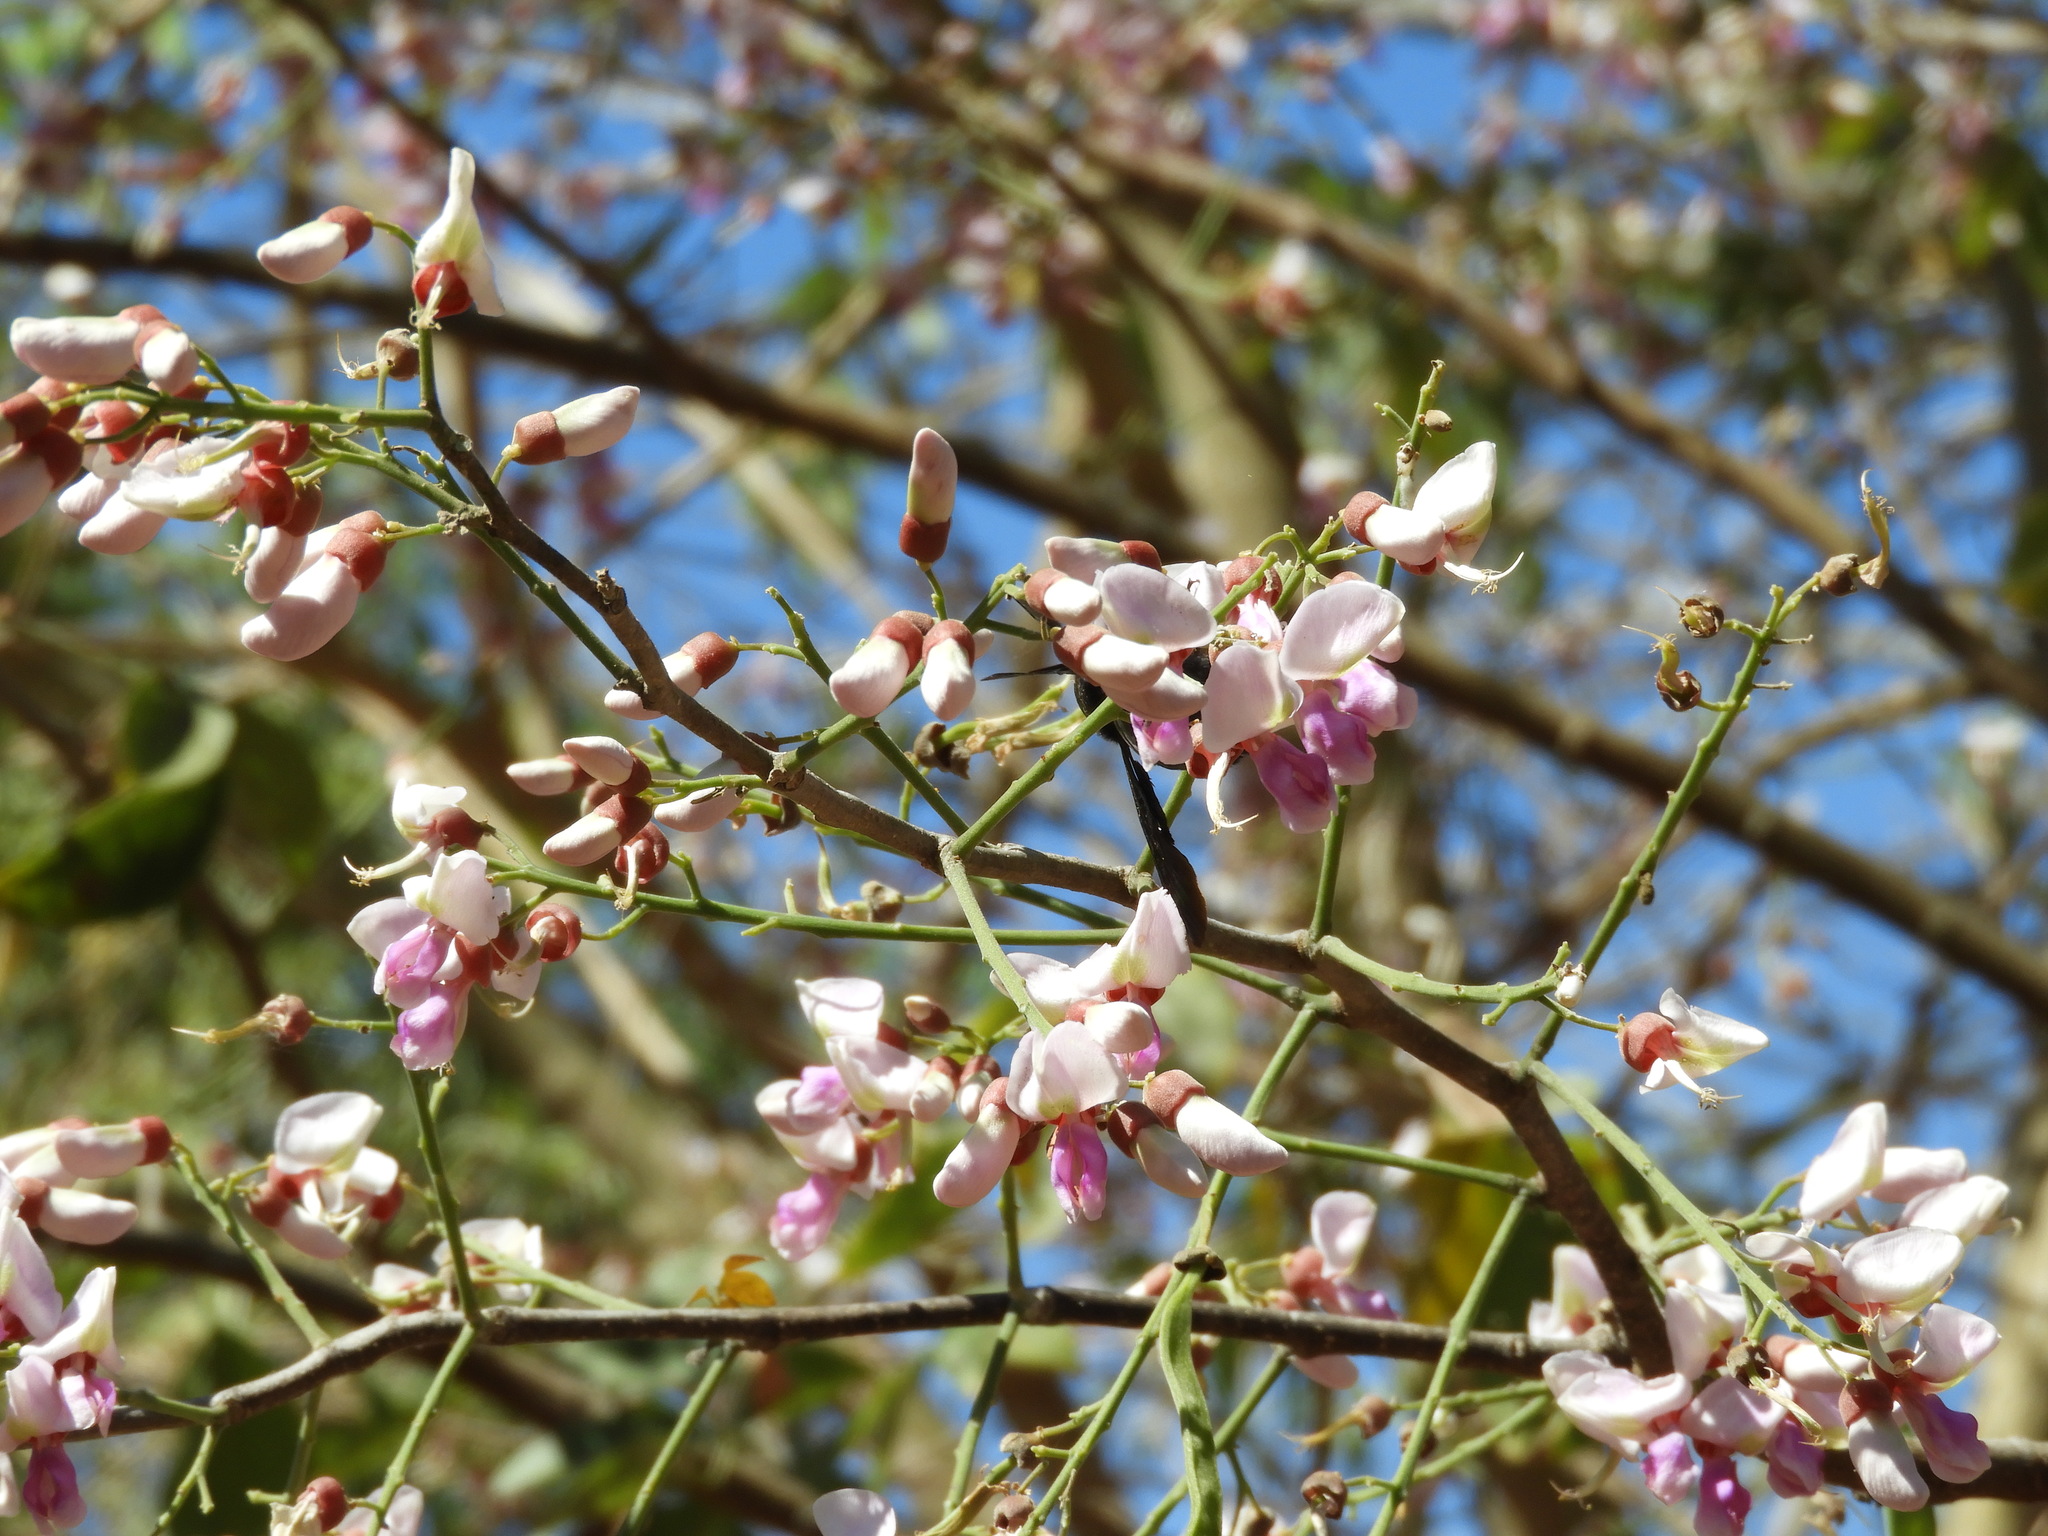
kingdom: Plantae
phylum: Tracheophyta
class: Magnoliopsida
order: Fabales
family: Fabaceae
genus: Lonchocarpus
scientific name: Lonchocarpus guatemalensis
